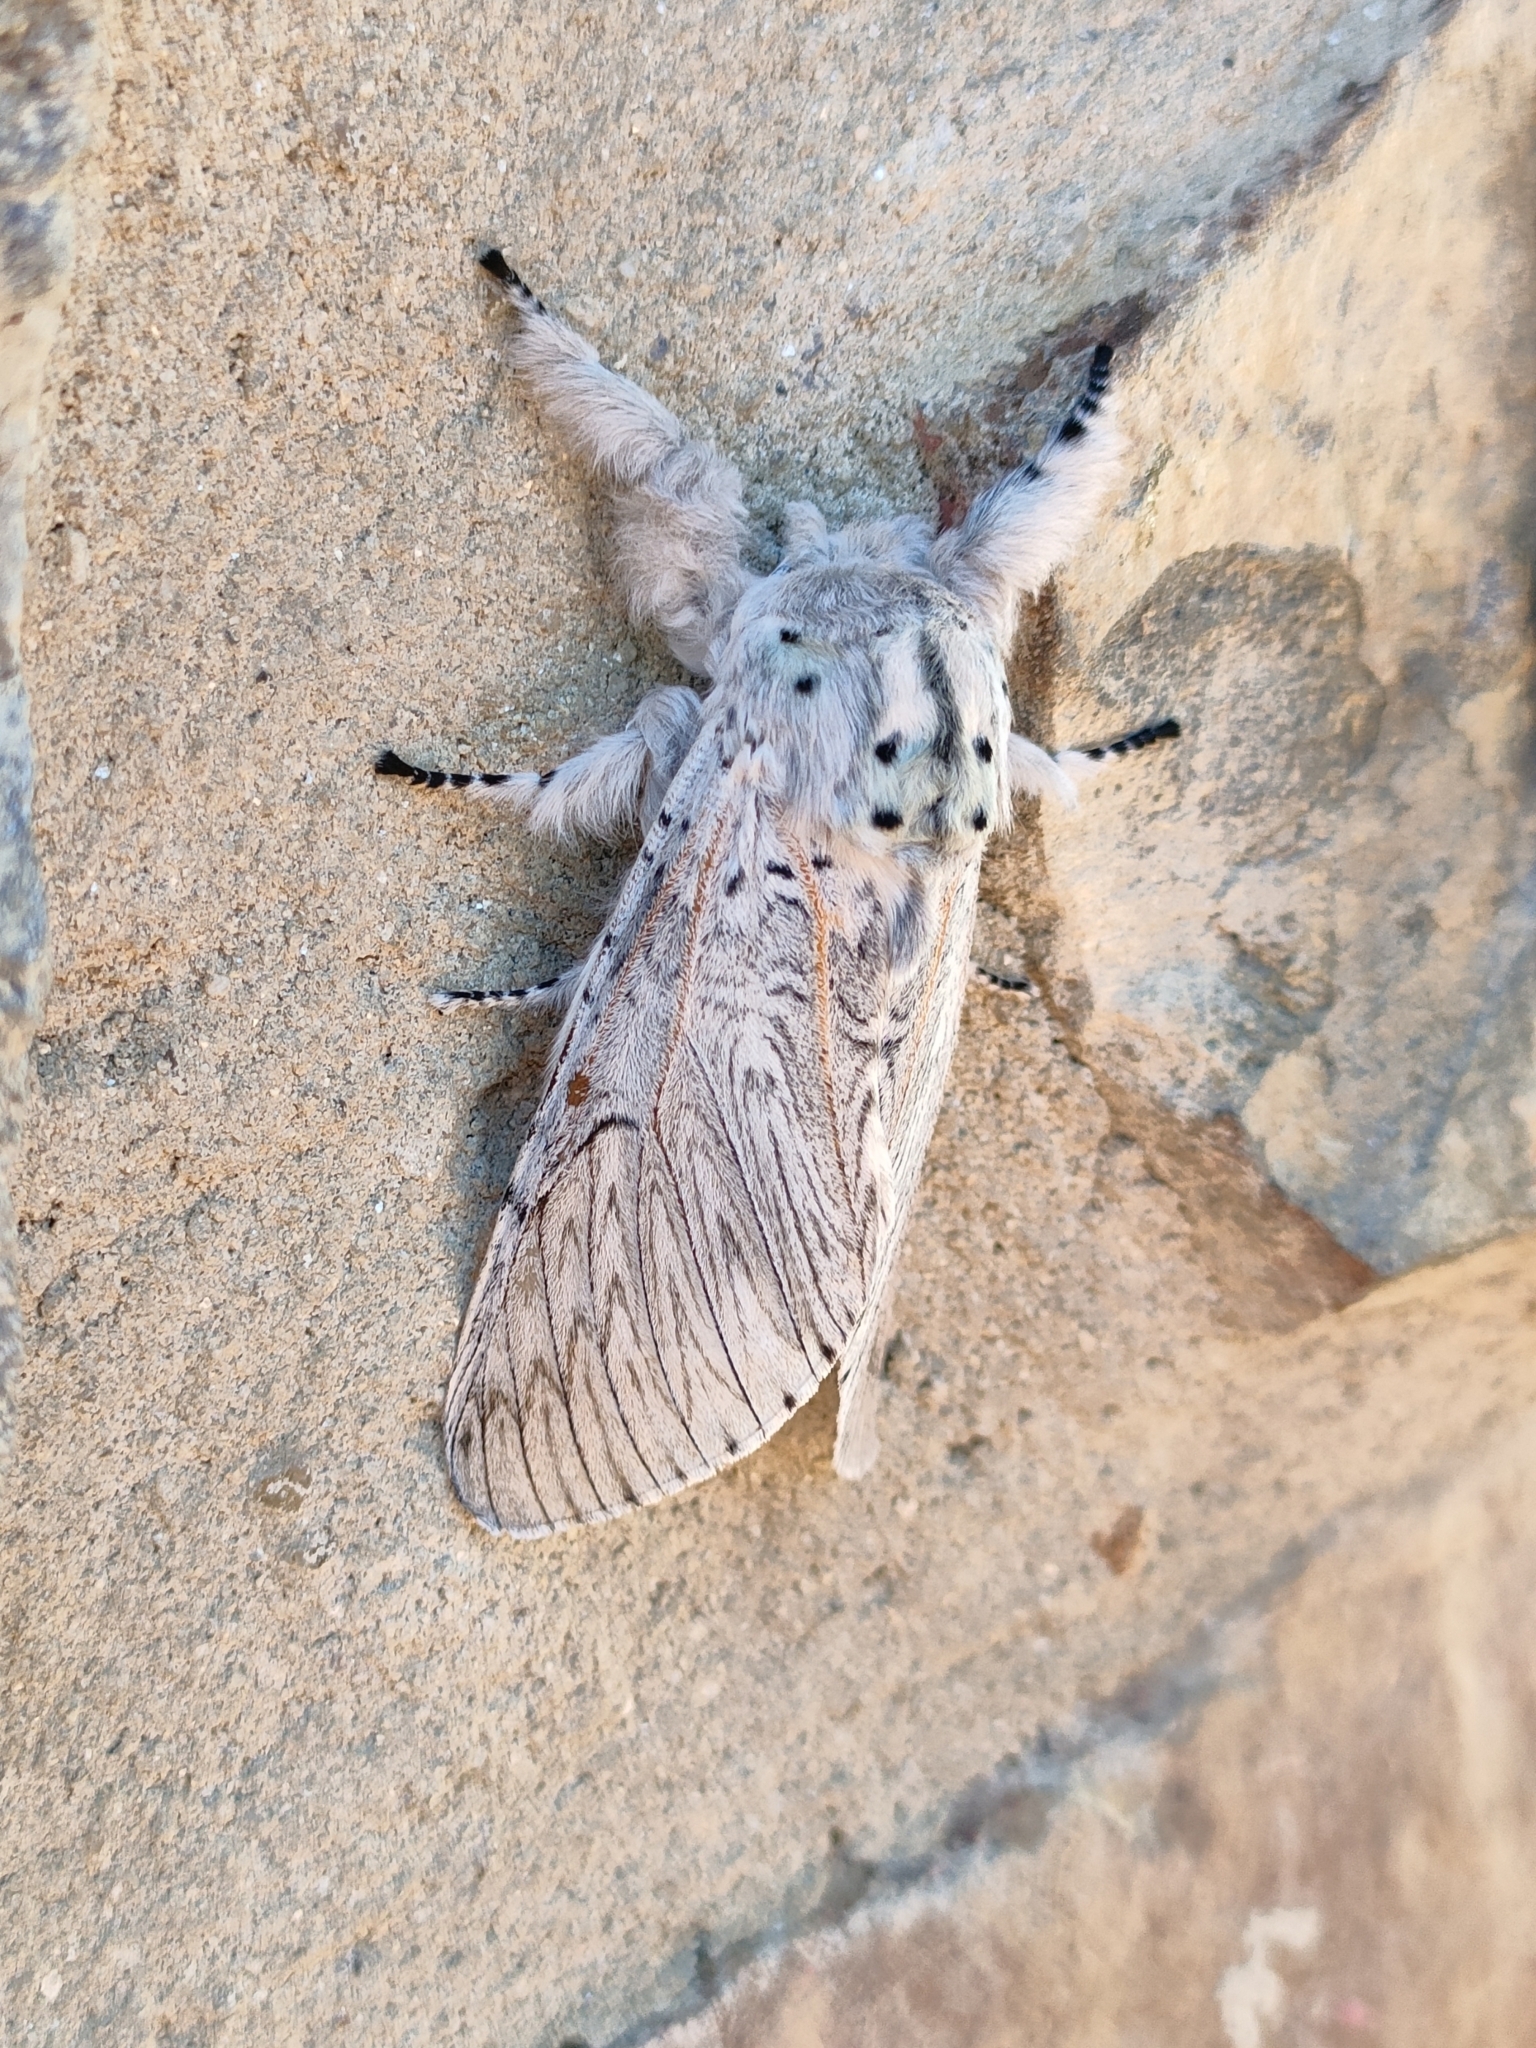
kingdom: Animalia
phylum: Arthropoda
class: Insecta
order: Lepidoptera
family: Notodontidae
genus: Cerura
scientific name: Cerura iberica
